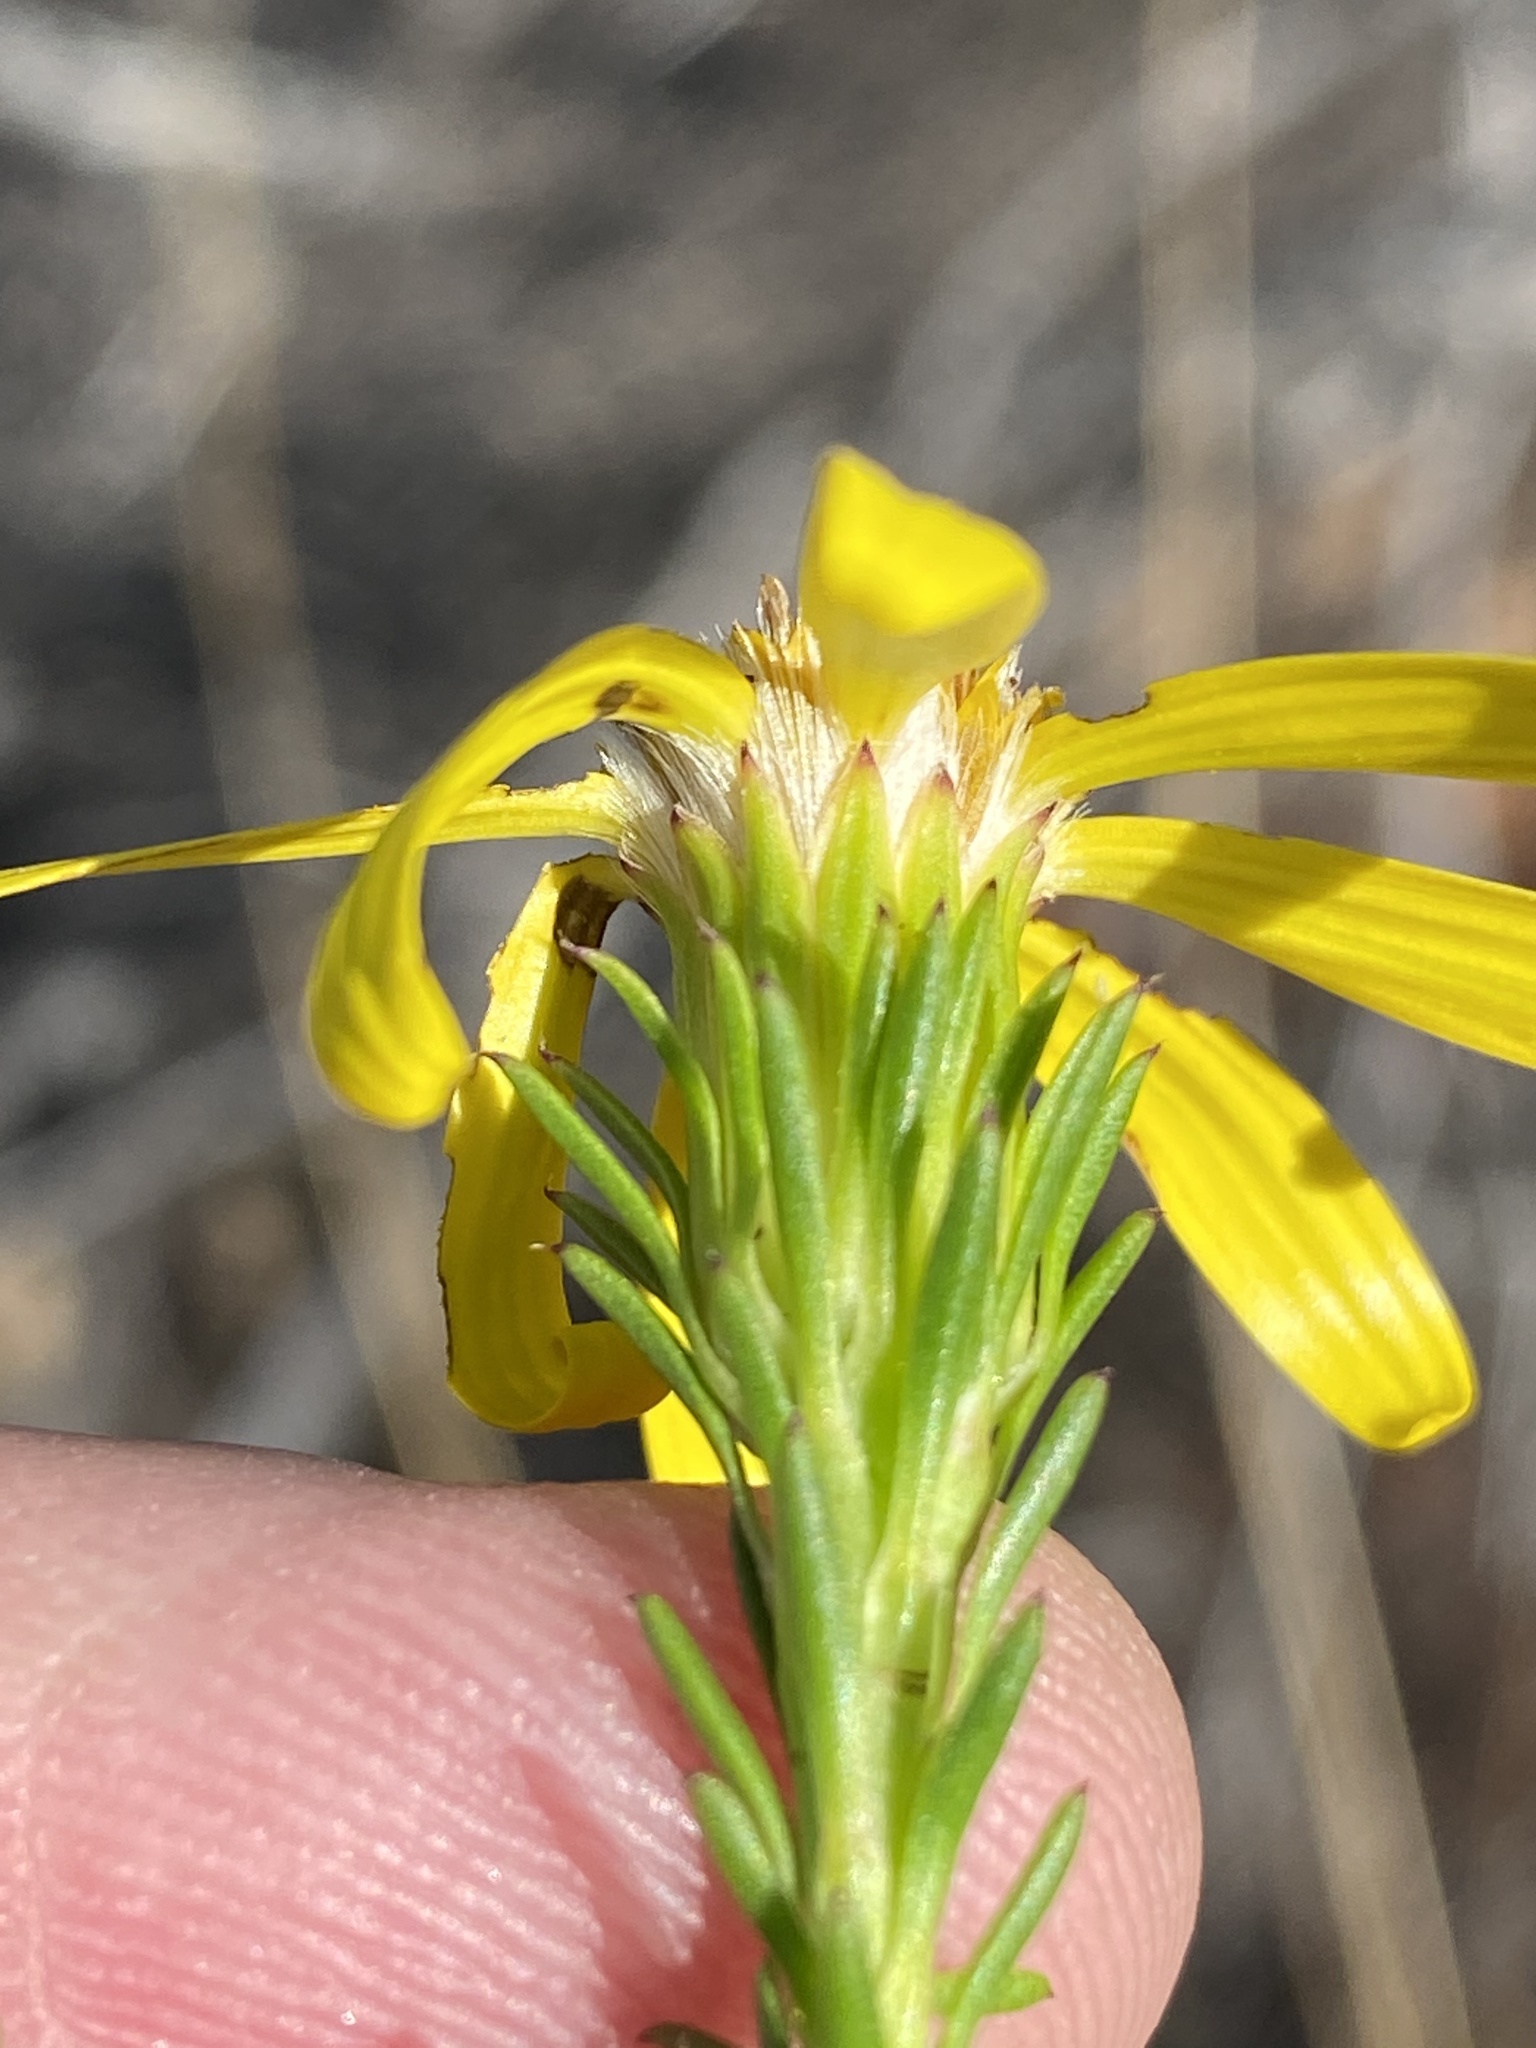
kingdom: Plantae
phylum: Tracheophyta
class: Magnoliopsida
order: Asterales
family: Asteraceae
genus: Senecio
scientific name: Senecio pinifolius
